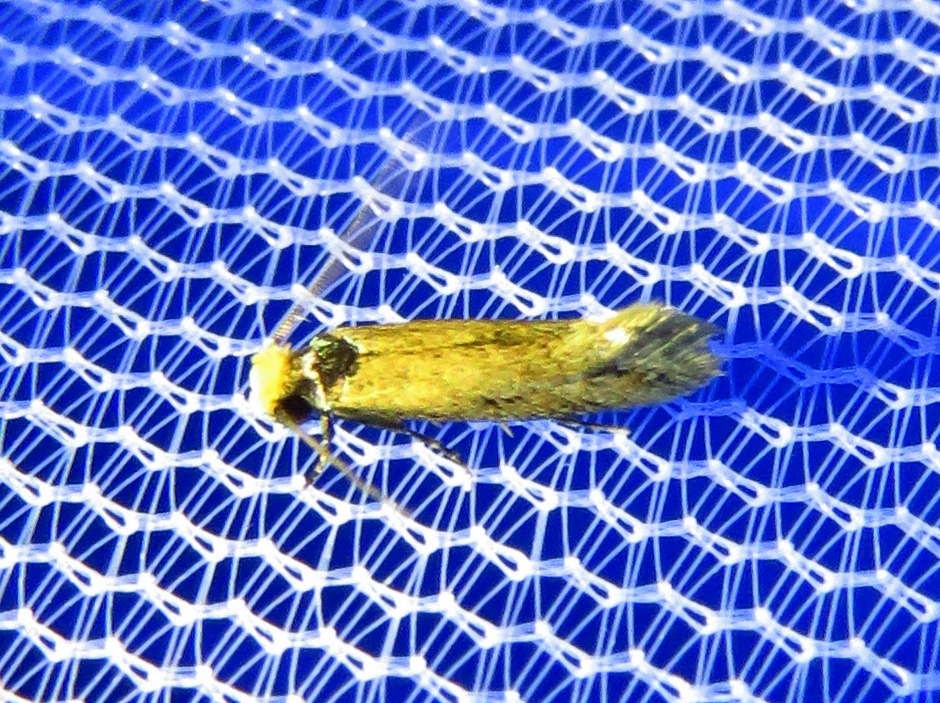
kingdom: Animalia
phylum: Arthropoda
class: Insecta
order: Lepidoptera
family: Meessiidae
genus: Homostinea
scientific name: Homostinea curviliniella
